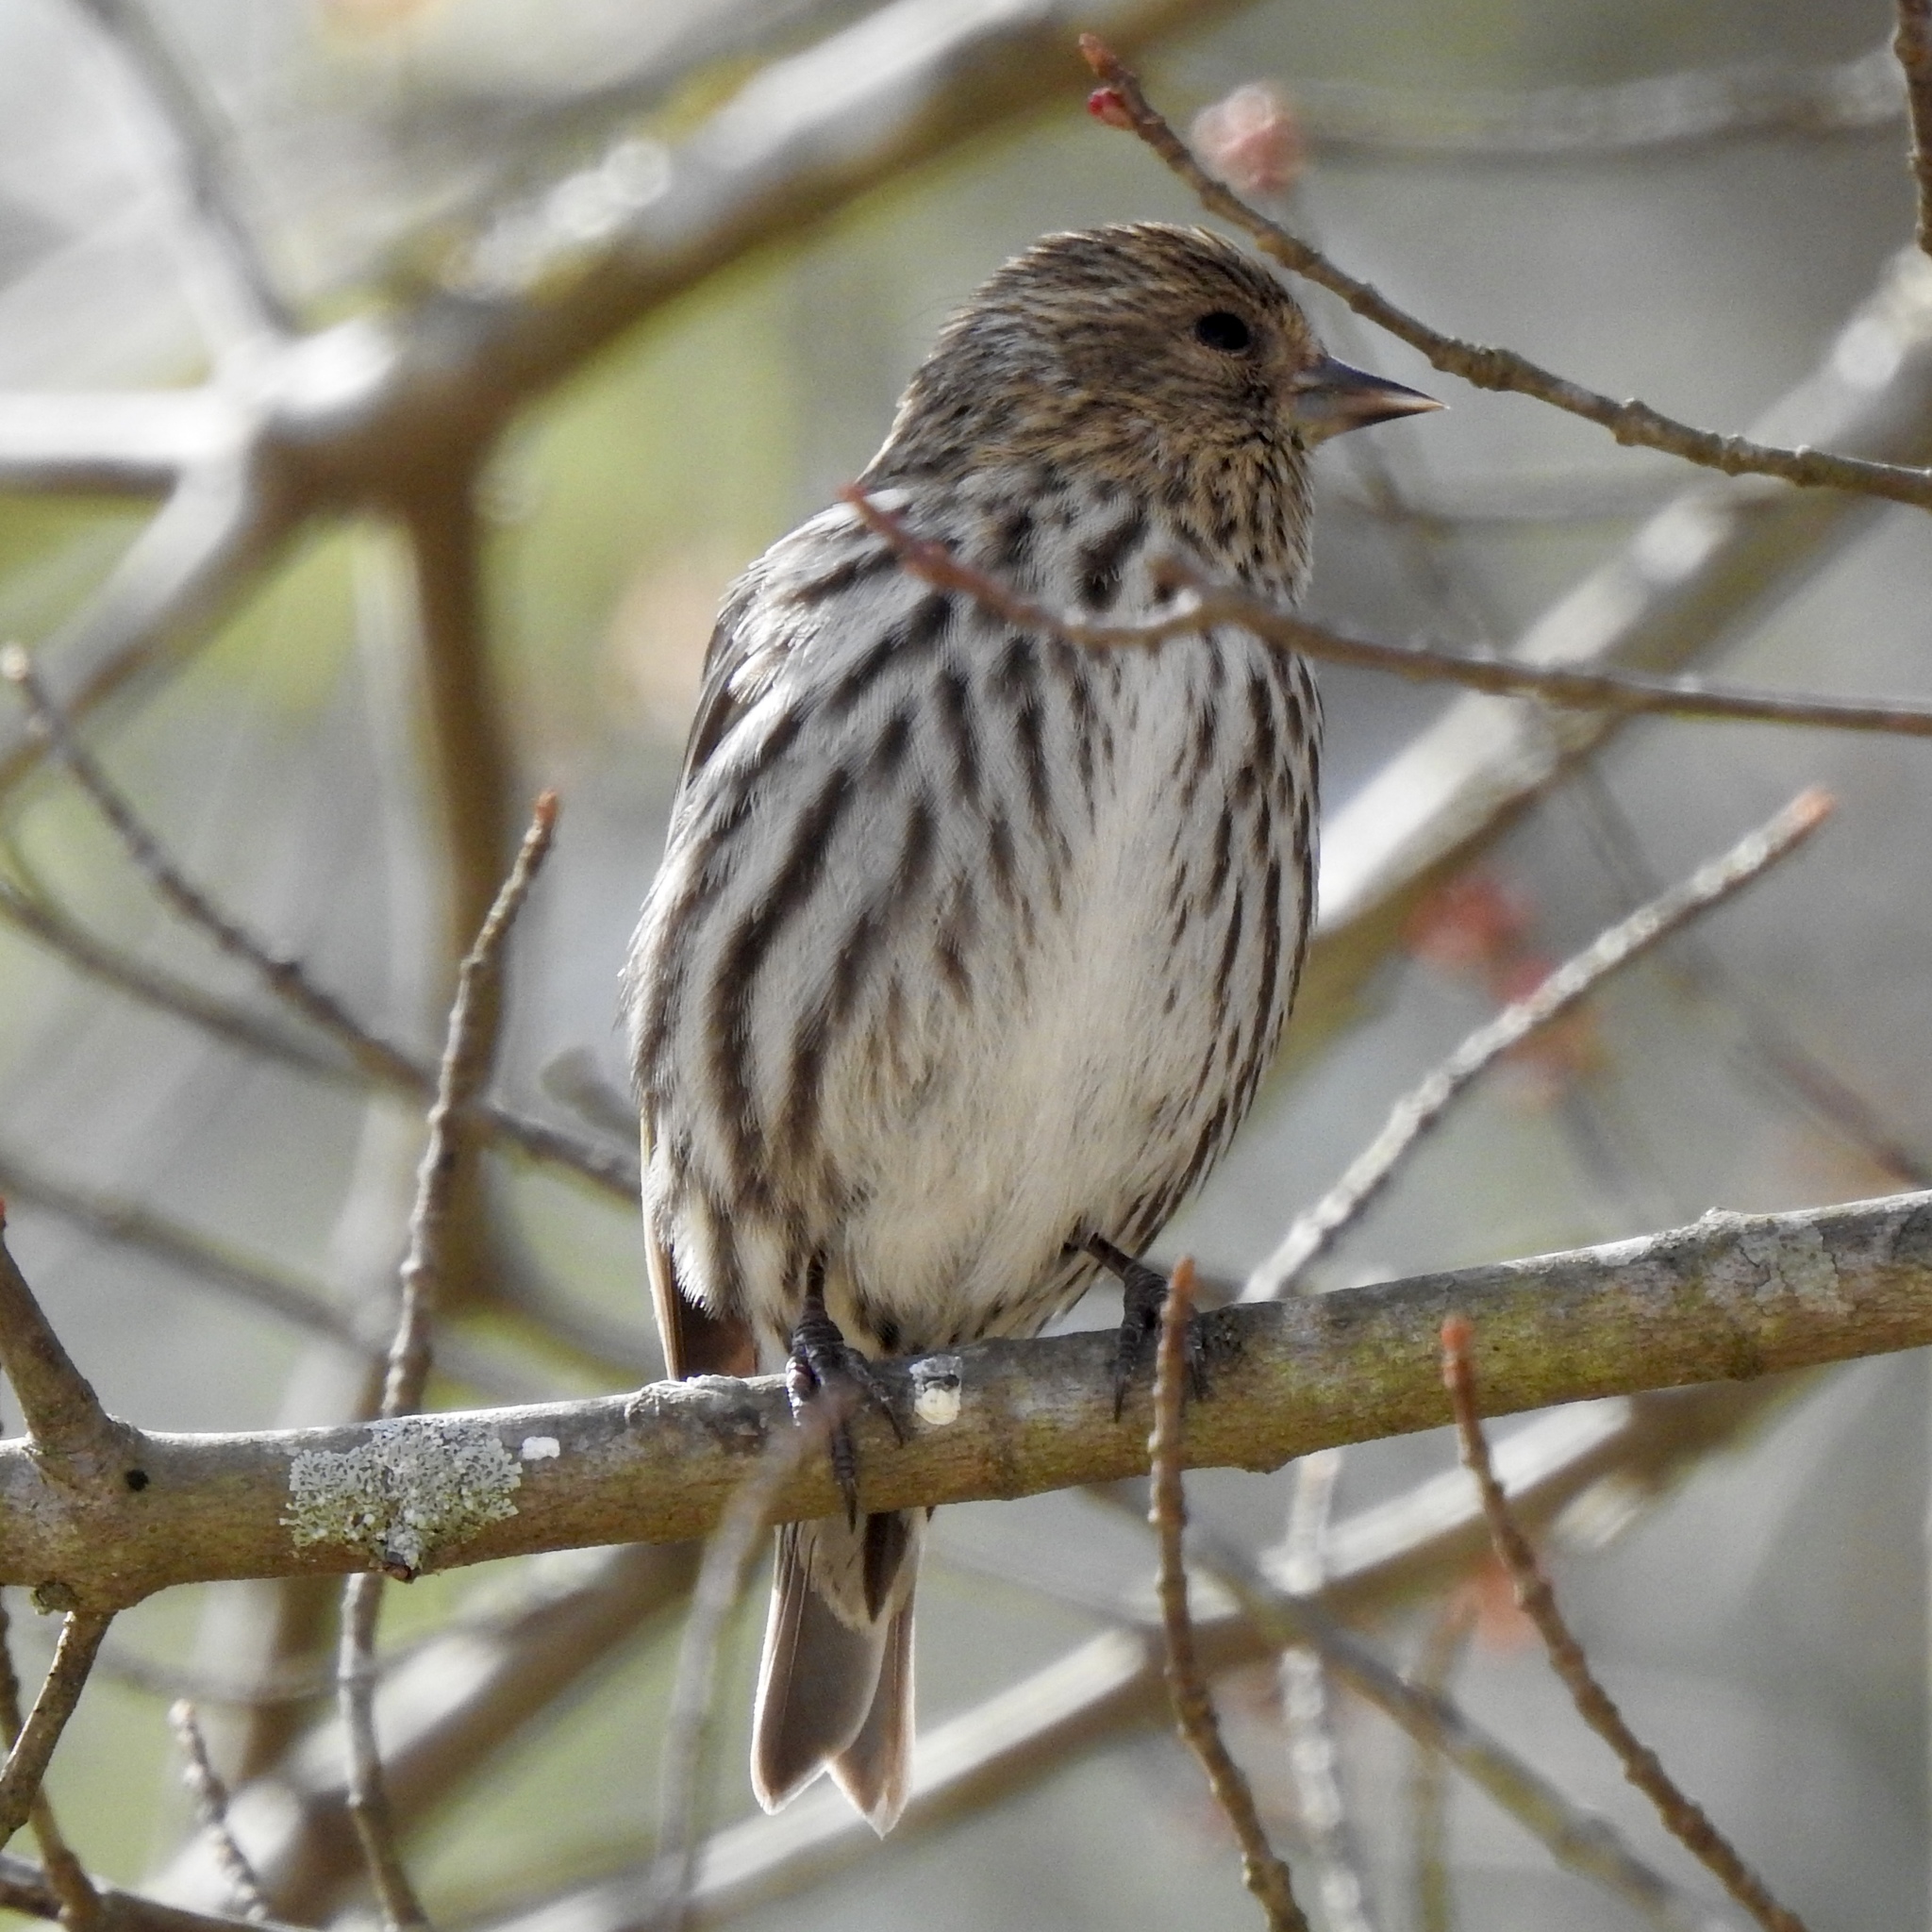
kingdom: Animalia
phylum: Chordata
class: Aves
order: Passeriformes
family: Fringillidae
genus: Spinus
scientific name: Spinus pinus
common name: Pine siskin
